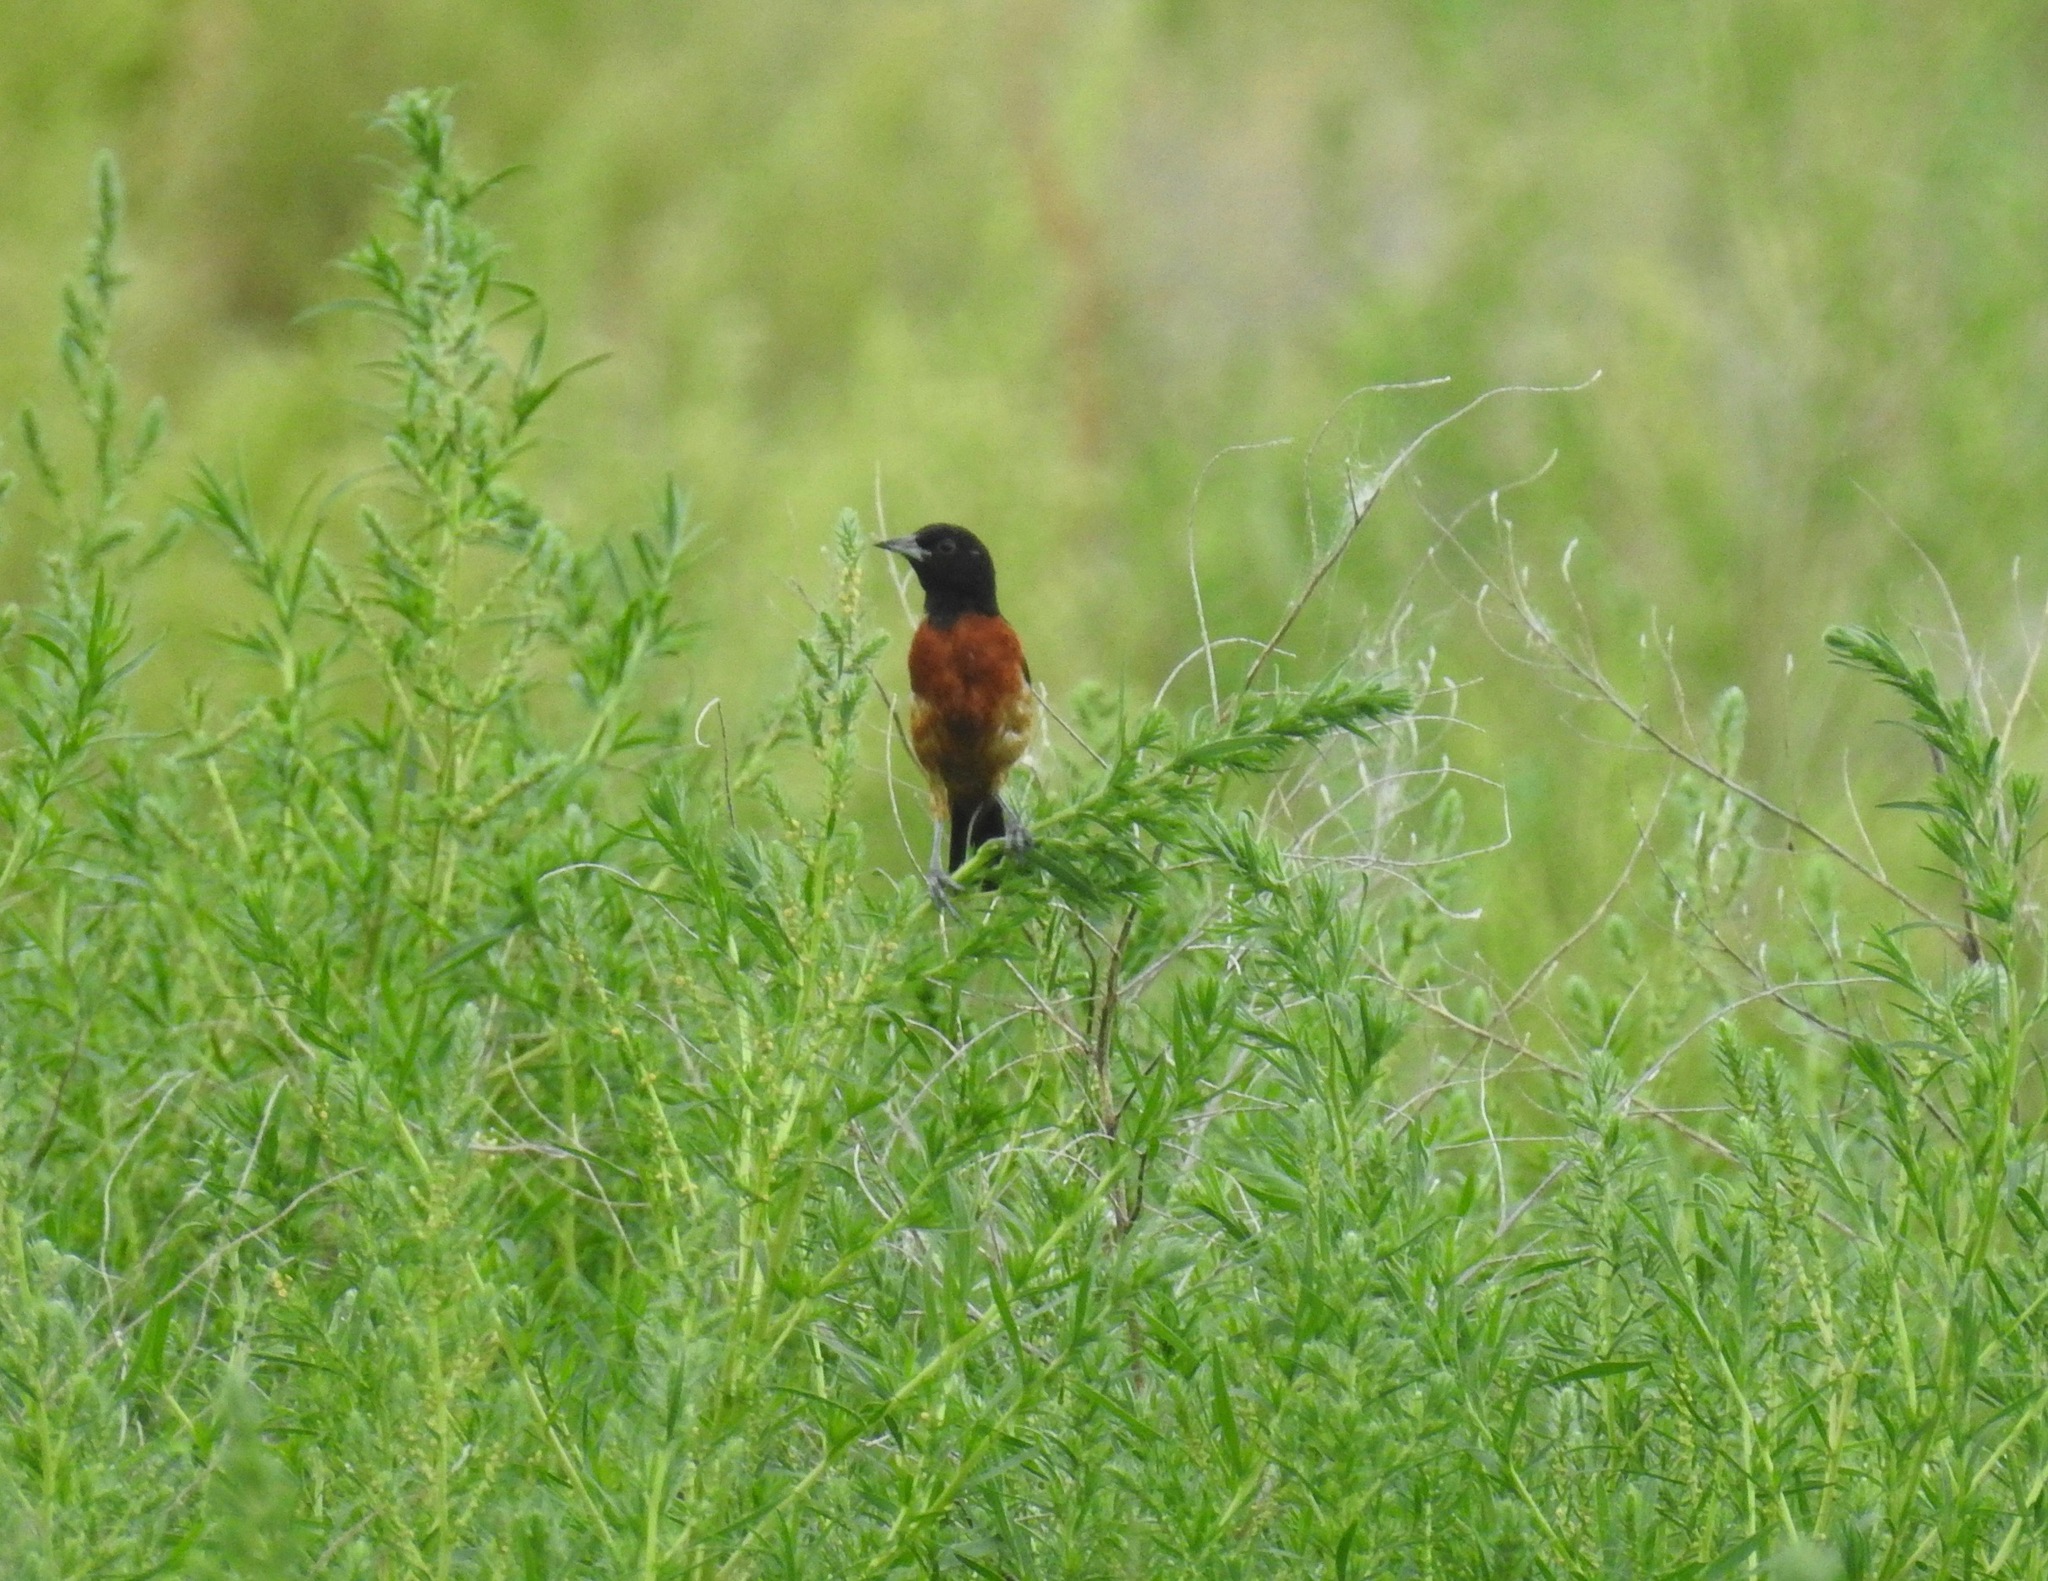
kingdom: Animalia
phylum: Chordata
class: Aves
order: Passeriformes
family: Icteridae
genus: Icterus
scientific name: Icterus spurius
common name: Orchard oriole
